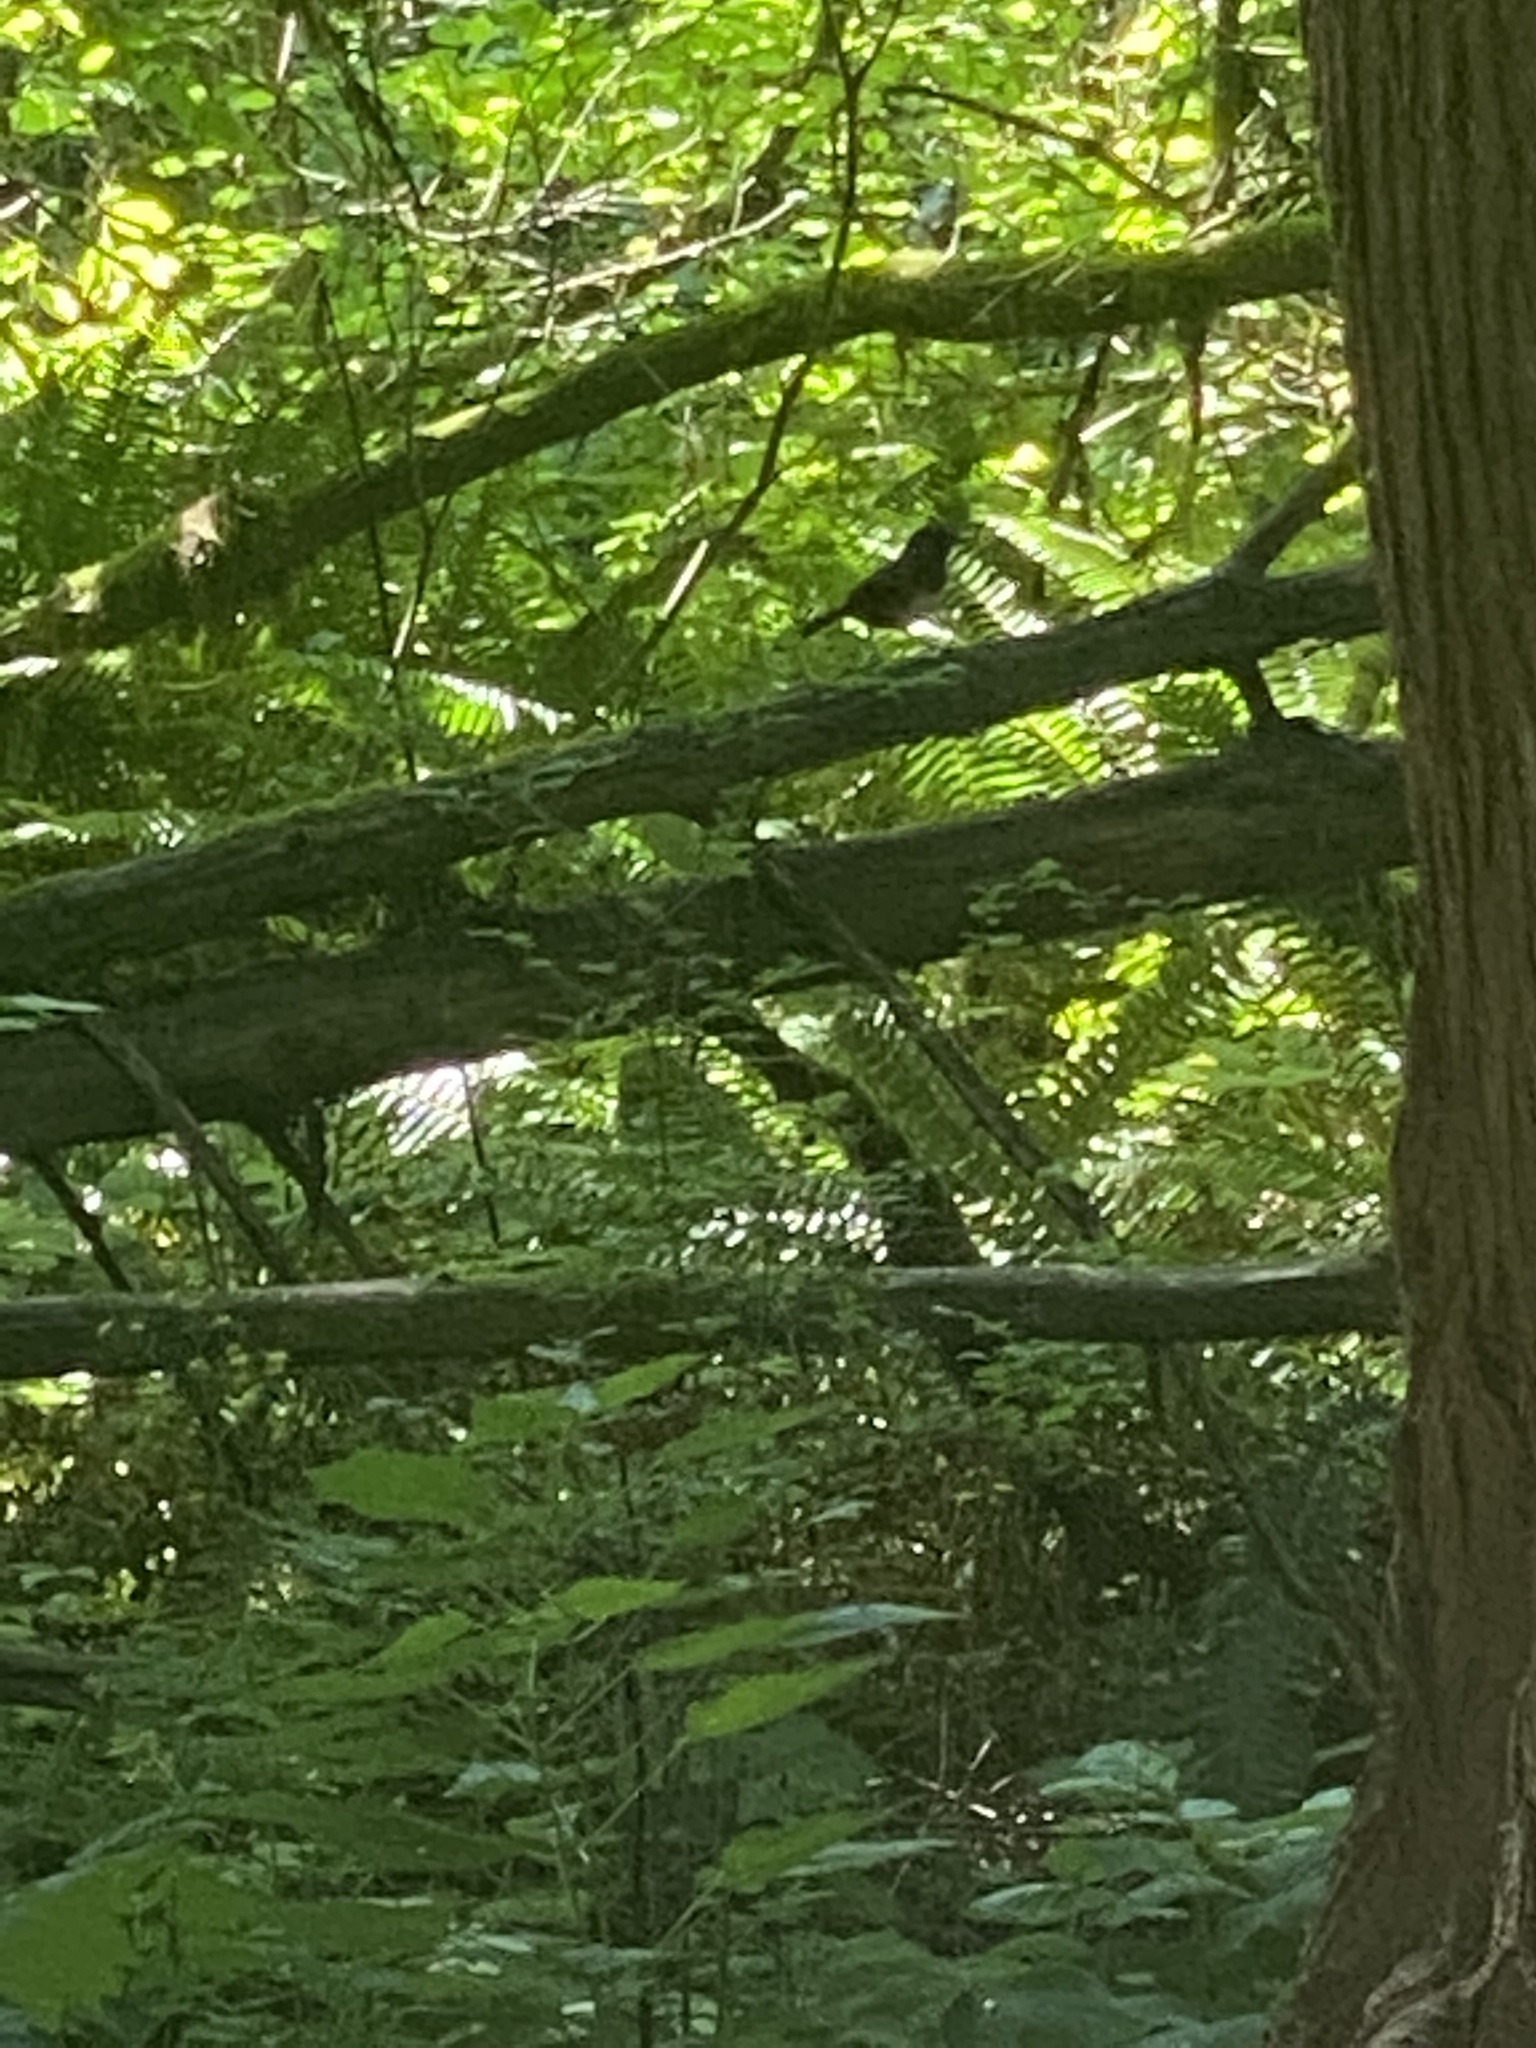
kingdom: Animalia
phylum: Chordata
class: Aves
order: Passeriformes
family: Passerellidae
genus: Pipilo
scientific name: Pipilo maculatus
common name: Spotted towhee
